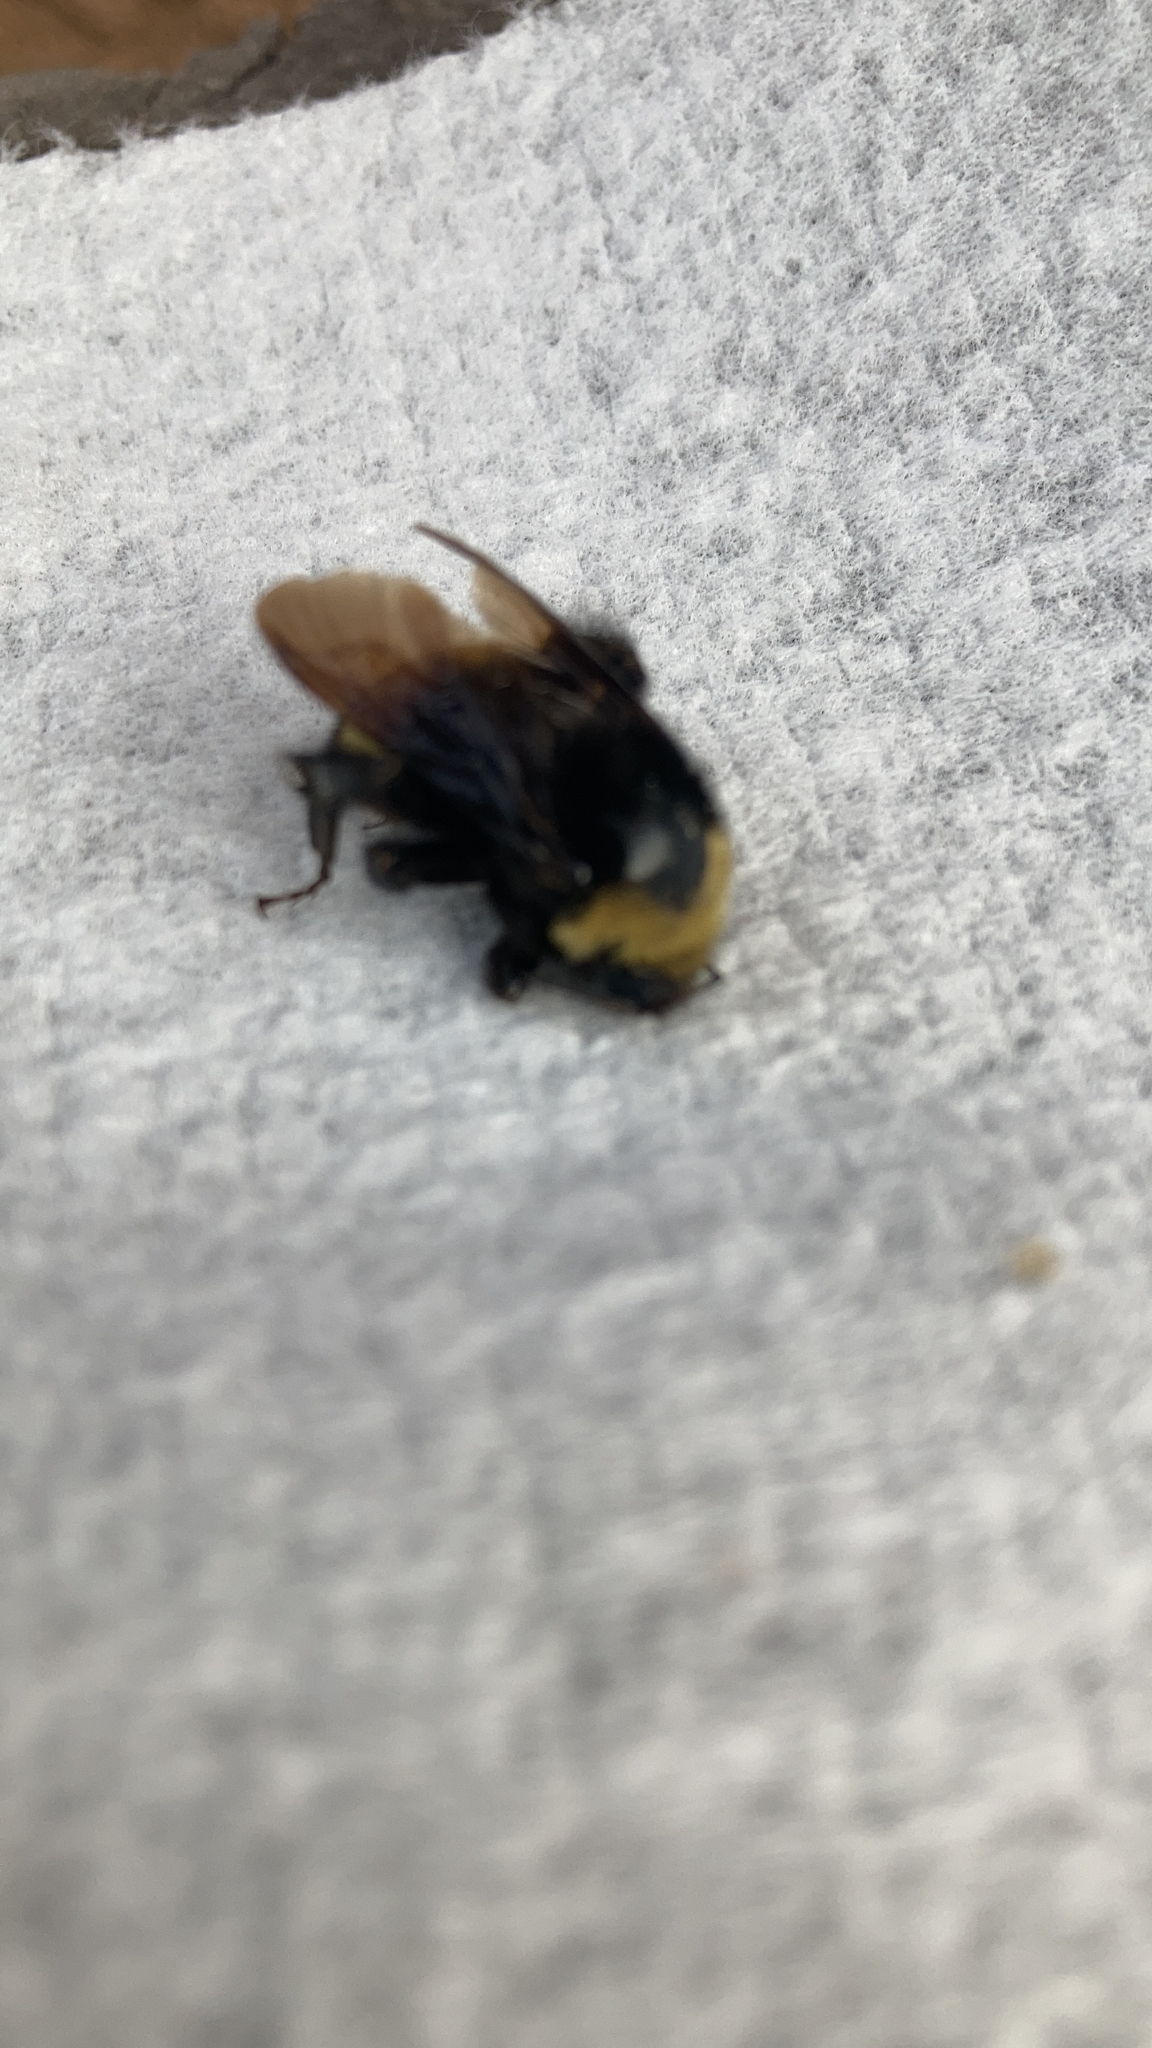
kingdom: Animalia
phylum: Arthropoda
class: Insecta
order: Hymenoptera
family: Apidae
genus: Bombus
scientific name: Bombus crotchii
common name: Crotch bumble bee
